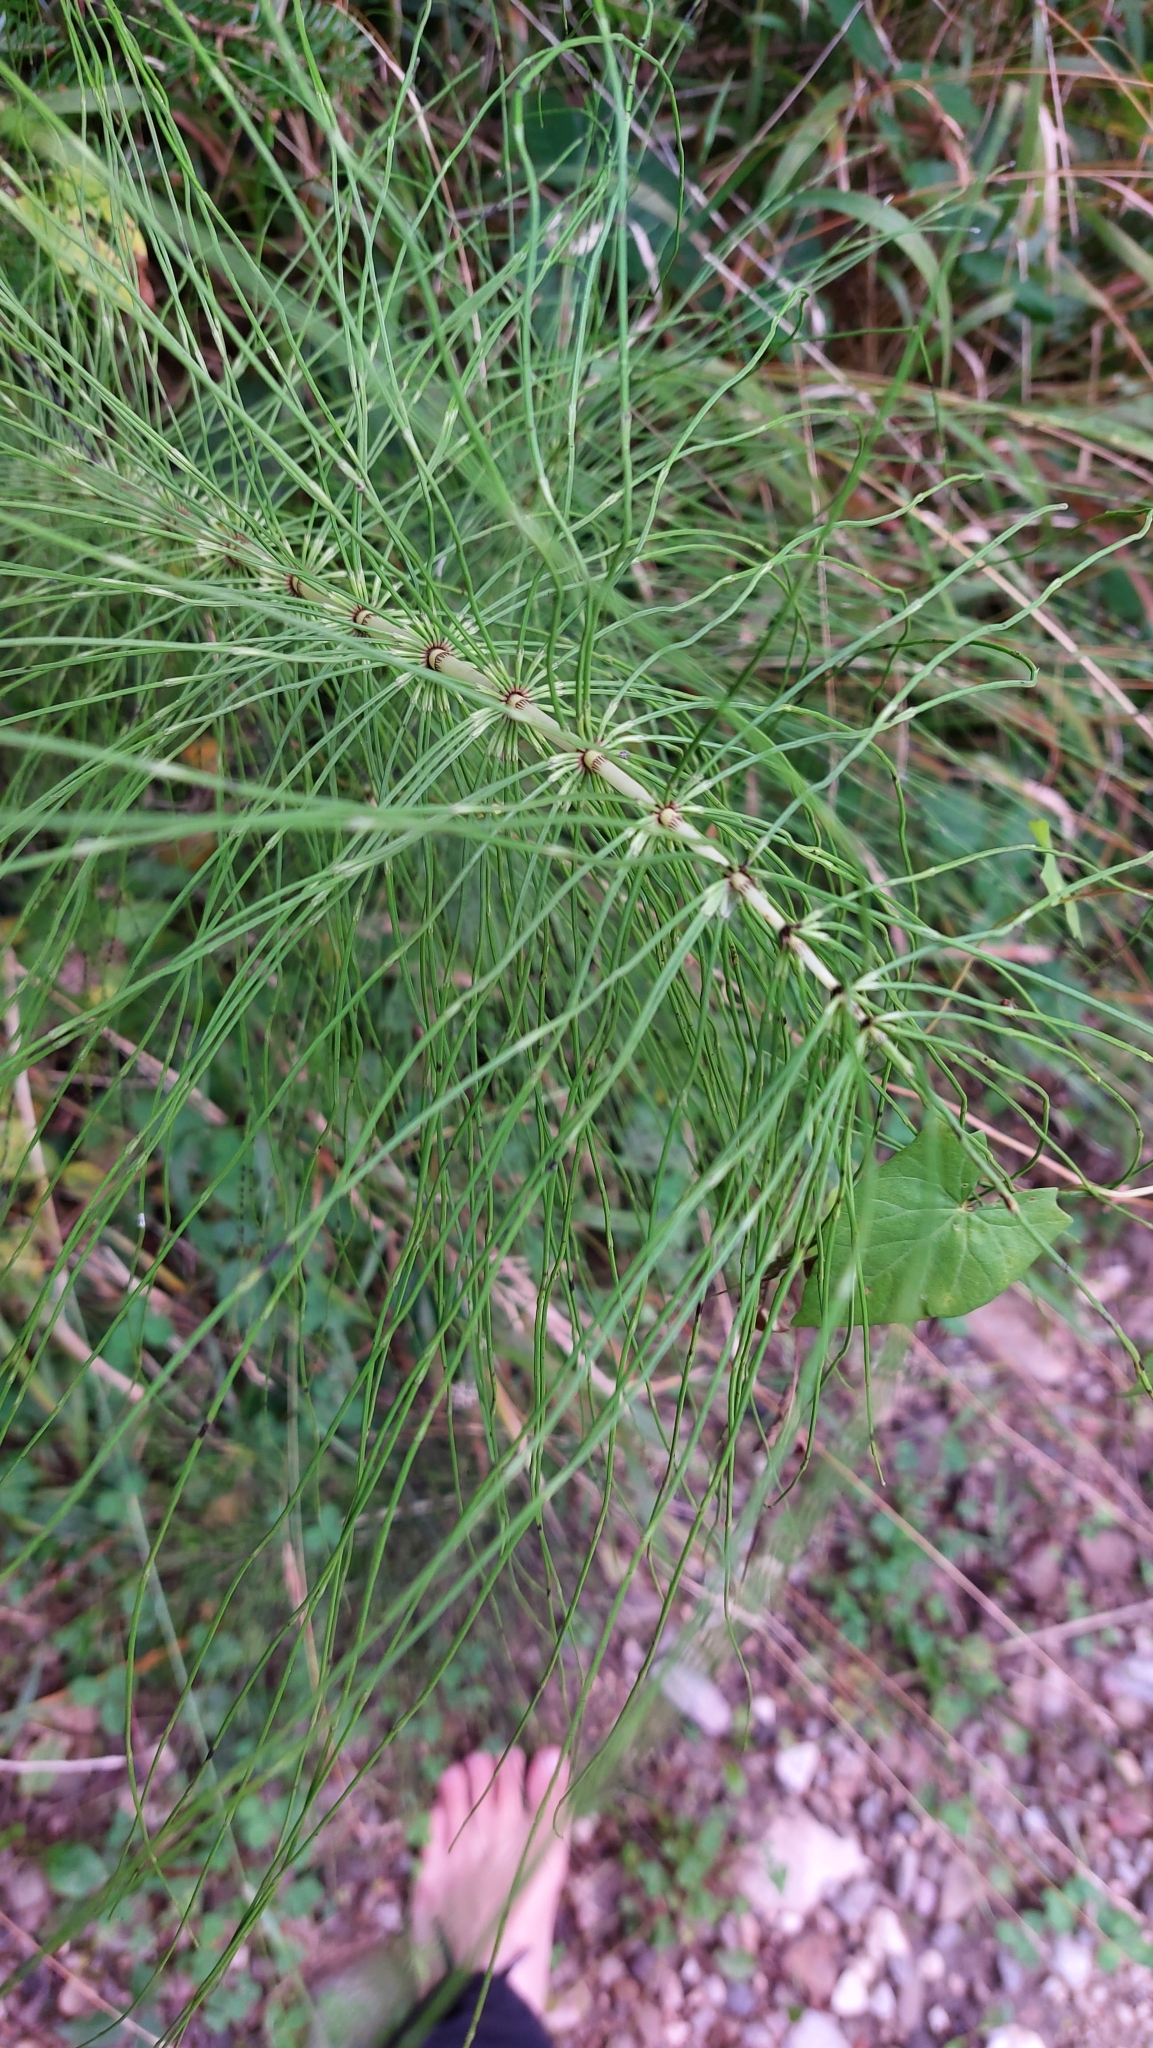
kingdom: Plantae
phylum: Tracheophyta
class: Polypodiopsida
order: Equisetales
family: Equisetaceae
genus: Equisetum
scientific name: Equisetum telmateia
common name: Great horsetail
